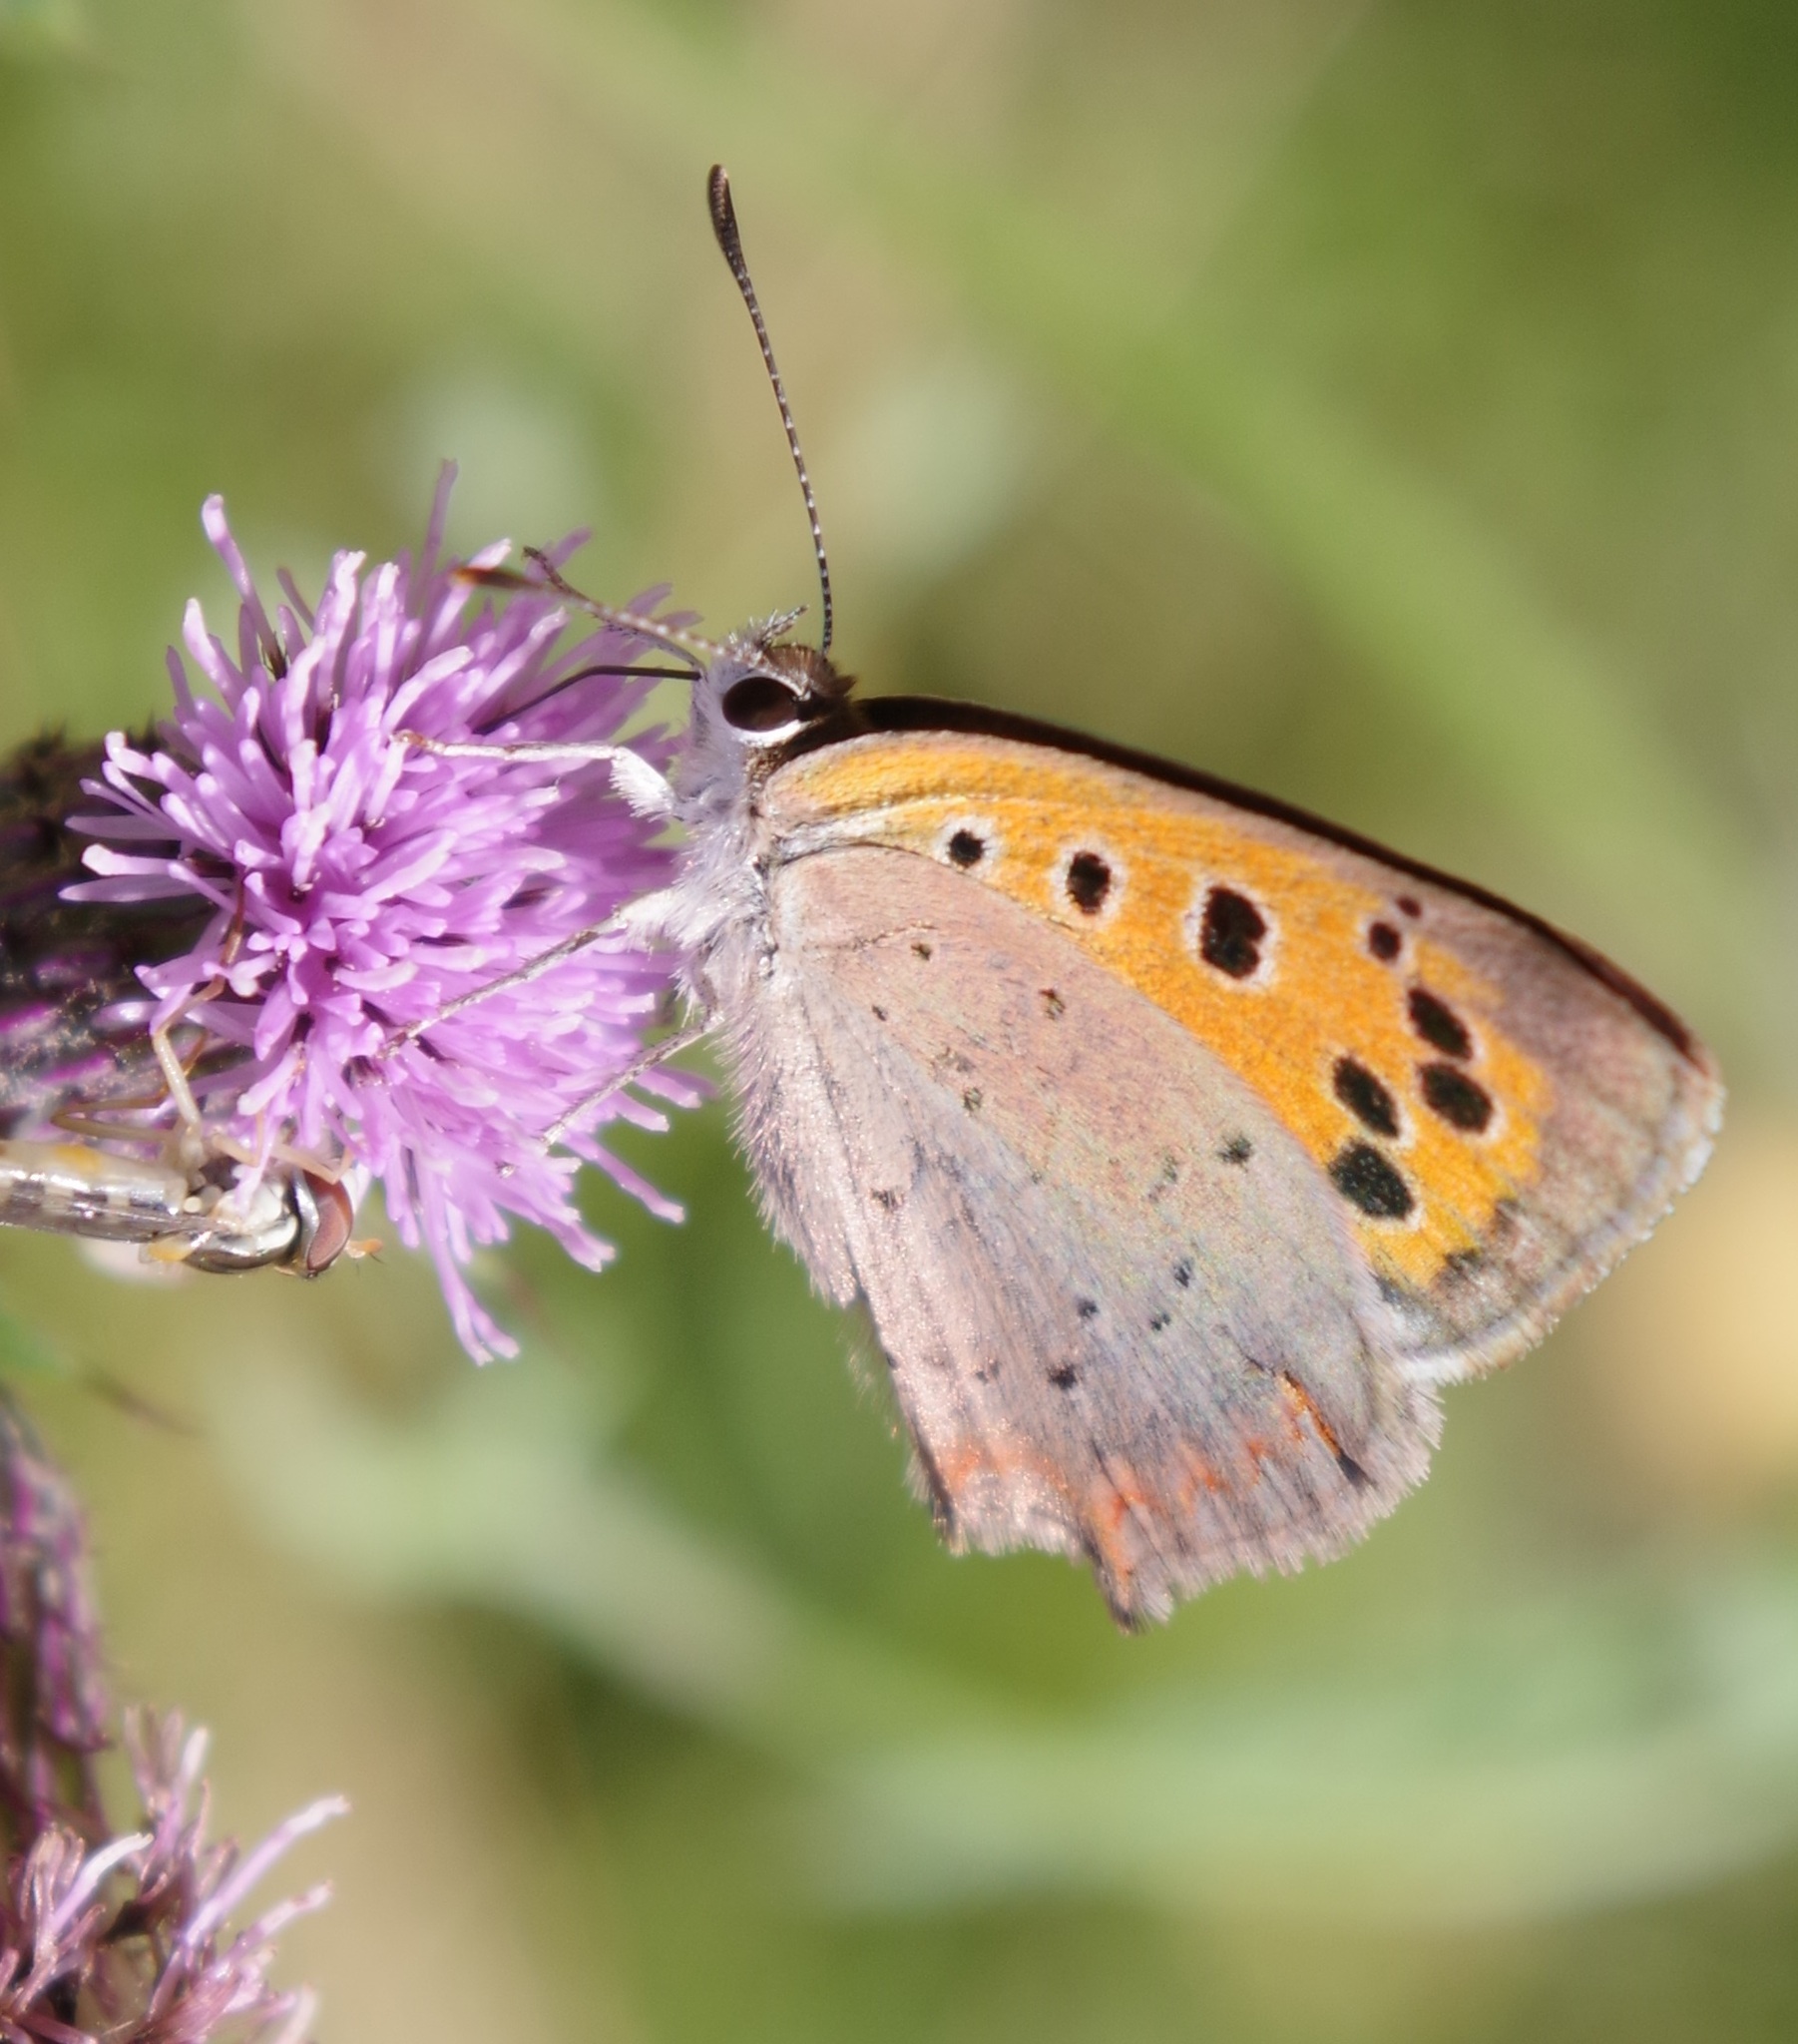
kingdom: Animalia
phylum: Arthropoda
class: Insecta
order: Lepidoptera
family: Lycaenidae
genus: Lycaena
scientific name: Lycaena phlaeas
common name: Small copper
